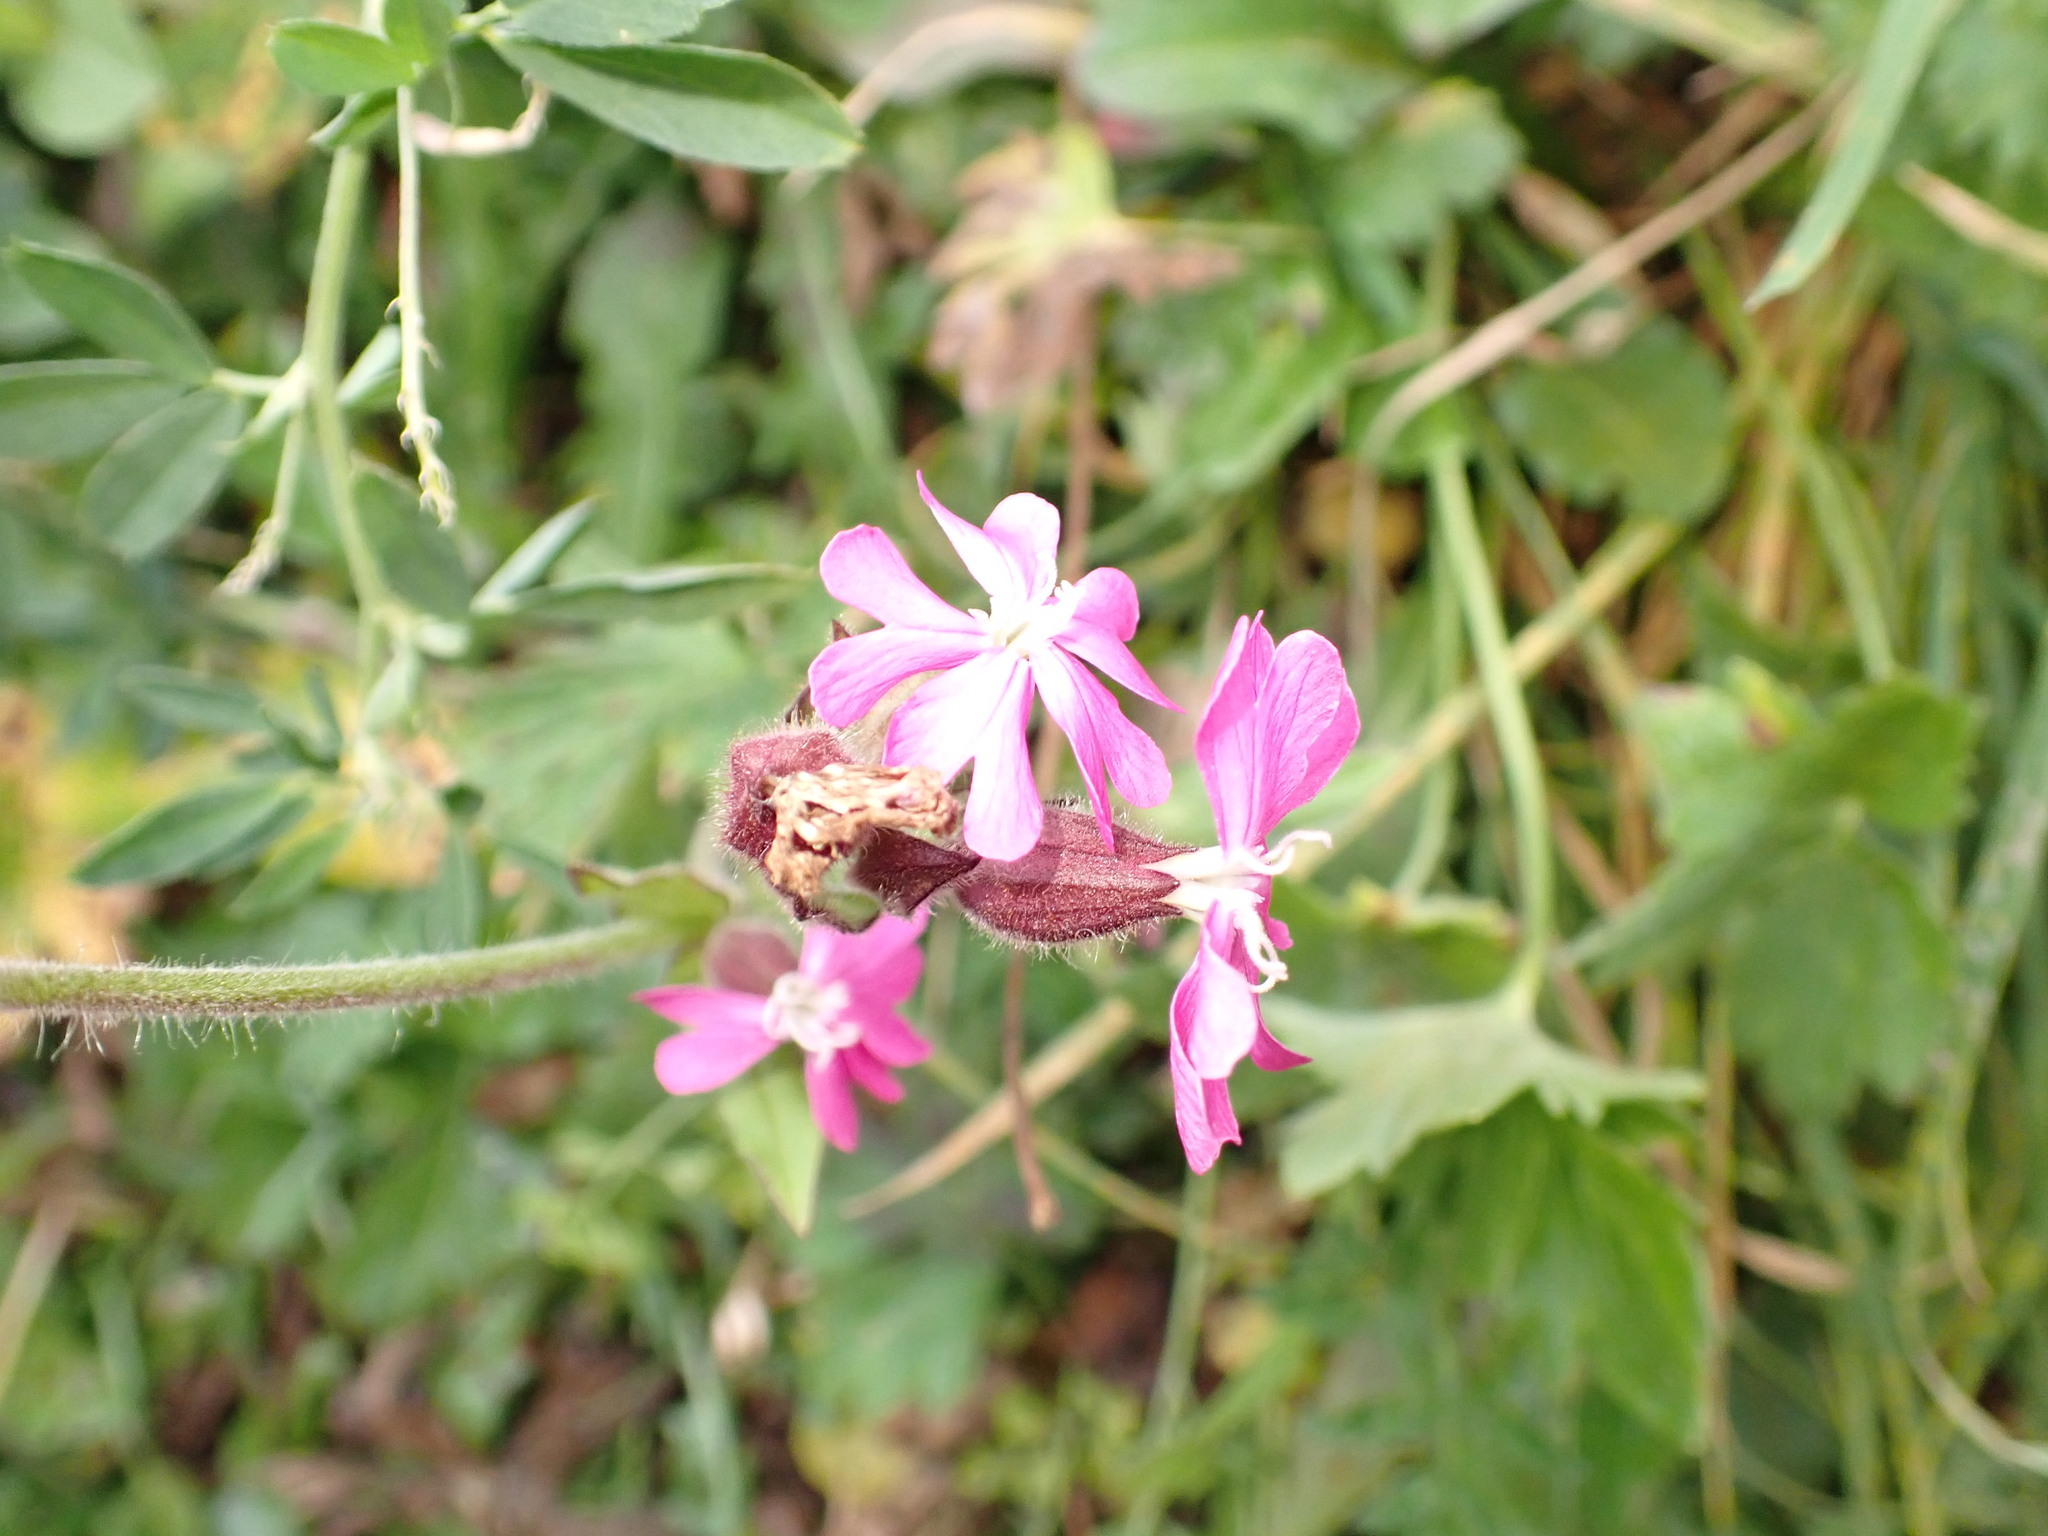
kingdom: Plantae
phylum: Tracheophyta
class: Magnoliopsida
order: Caryophyllales
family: Caryophyllaceae
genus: Silene
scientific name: Silene dioica
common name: Red campion
